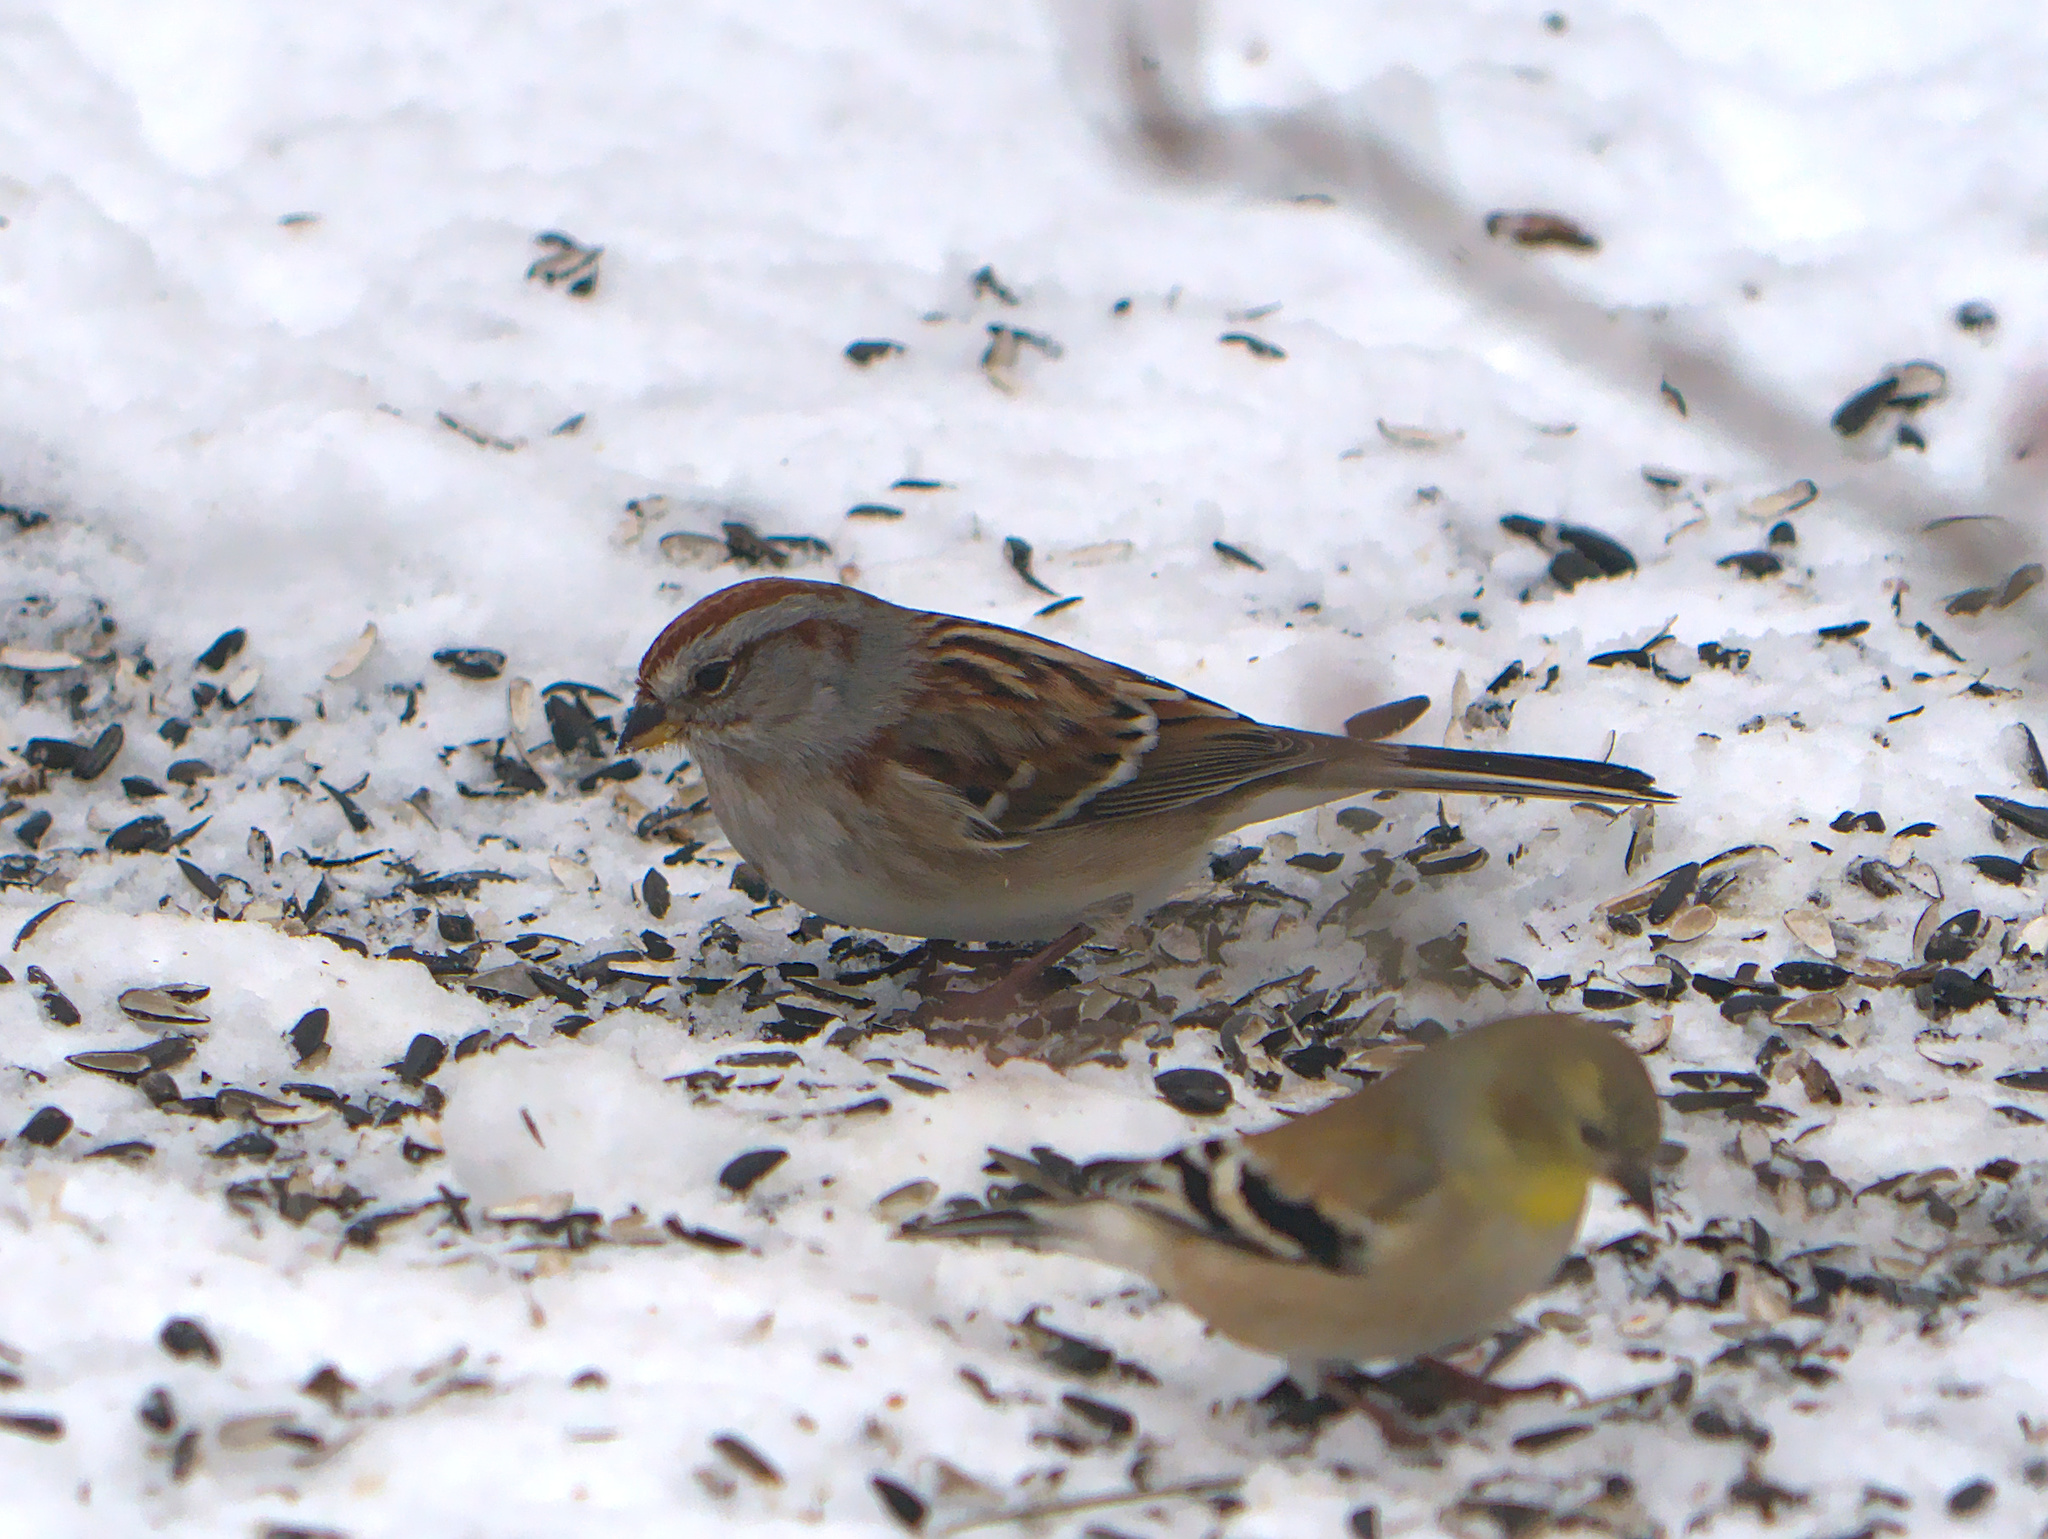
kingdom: Animalia
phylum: Chordata
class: Aves
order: Passeriformes
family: Passerellidae
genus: Spizelloides
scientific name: Spizelloides arborea
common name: American tree sparrow
